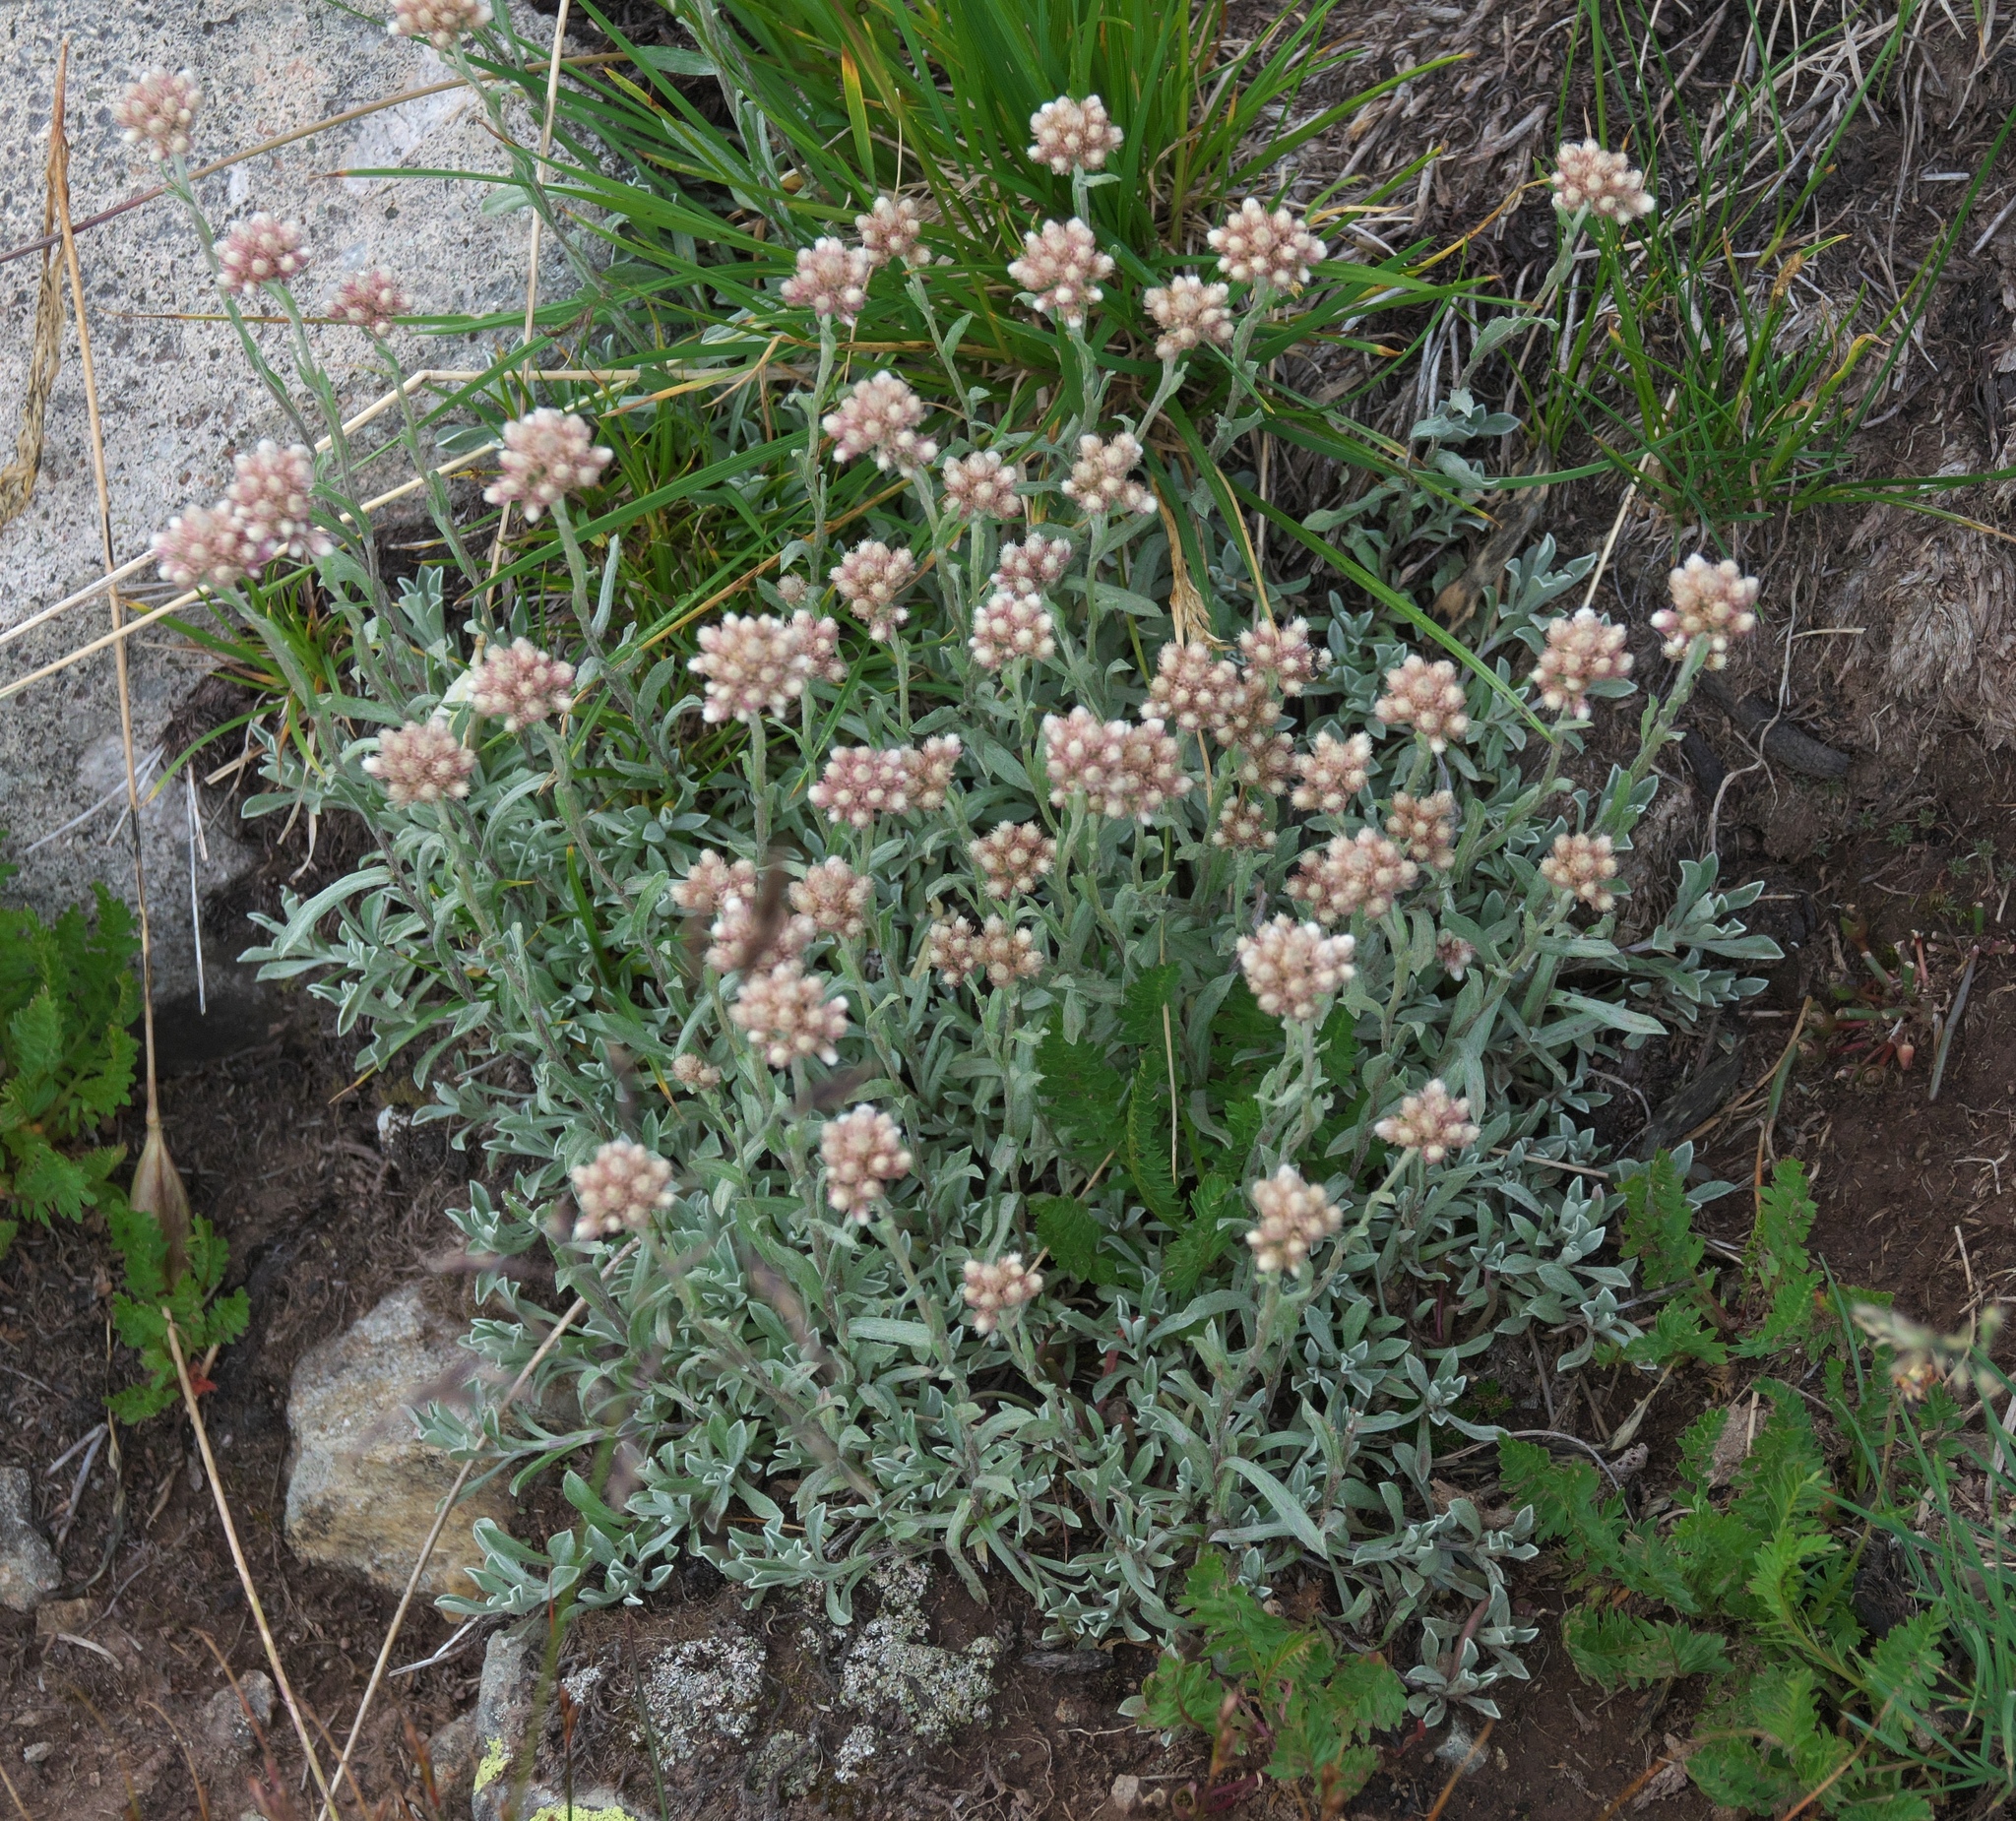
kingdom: Plantae
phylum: Tracheophyta
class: Magnoliopsida
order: Asterales
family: Asteraceae
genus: Antennaria
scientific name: Antennaria rosea
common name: Rosy pussytoes
